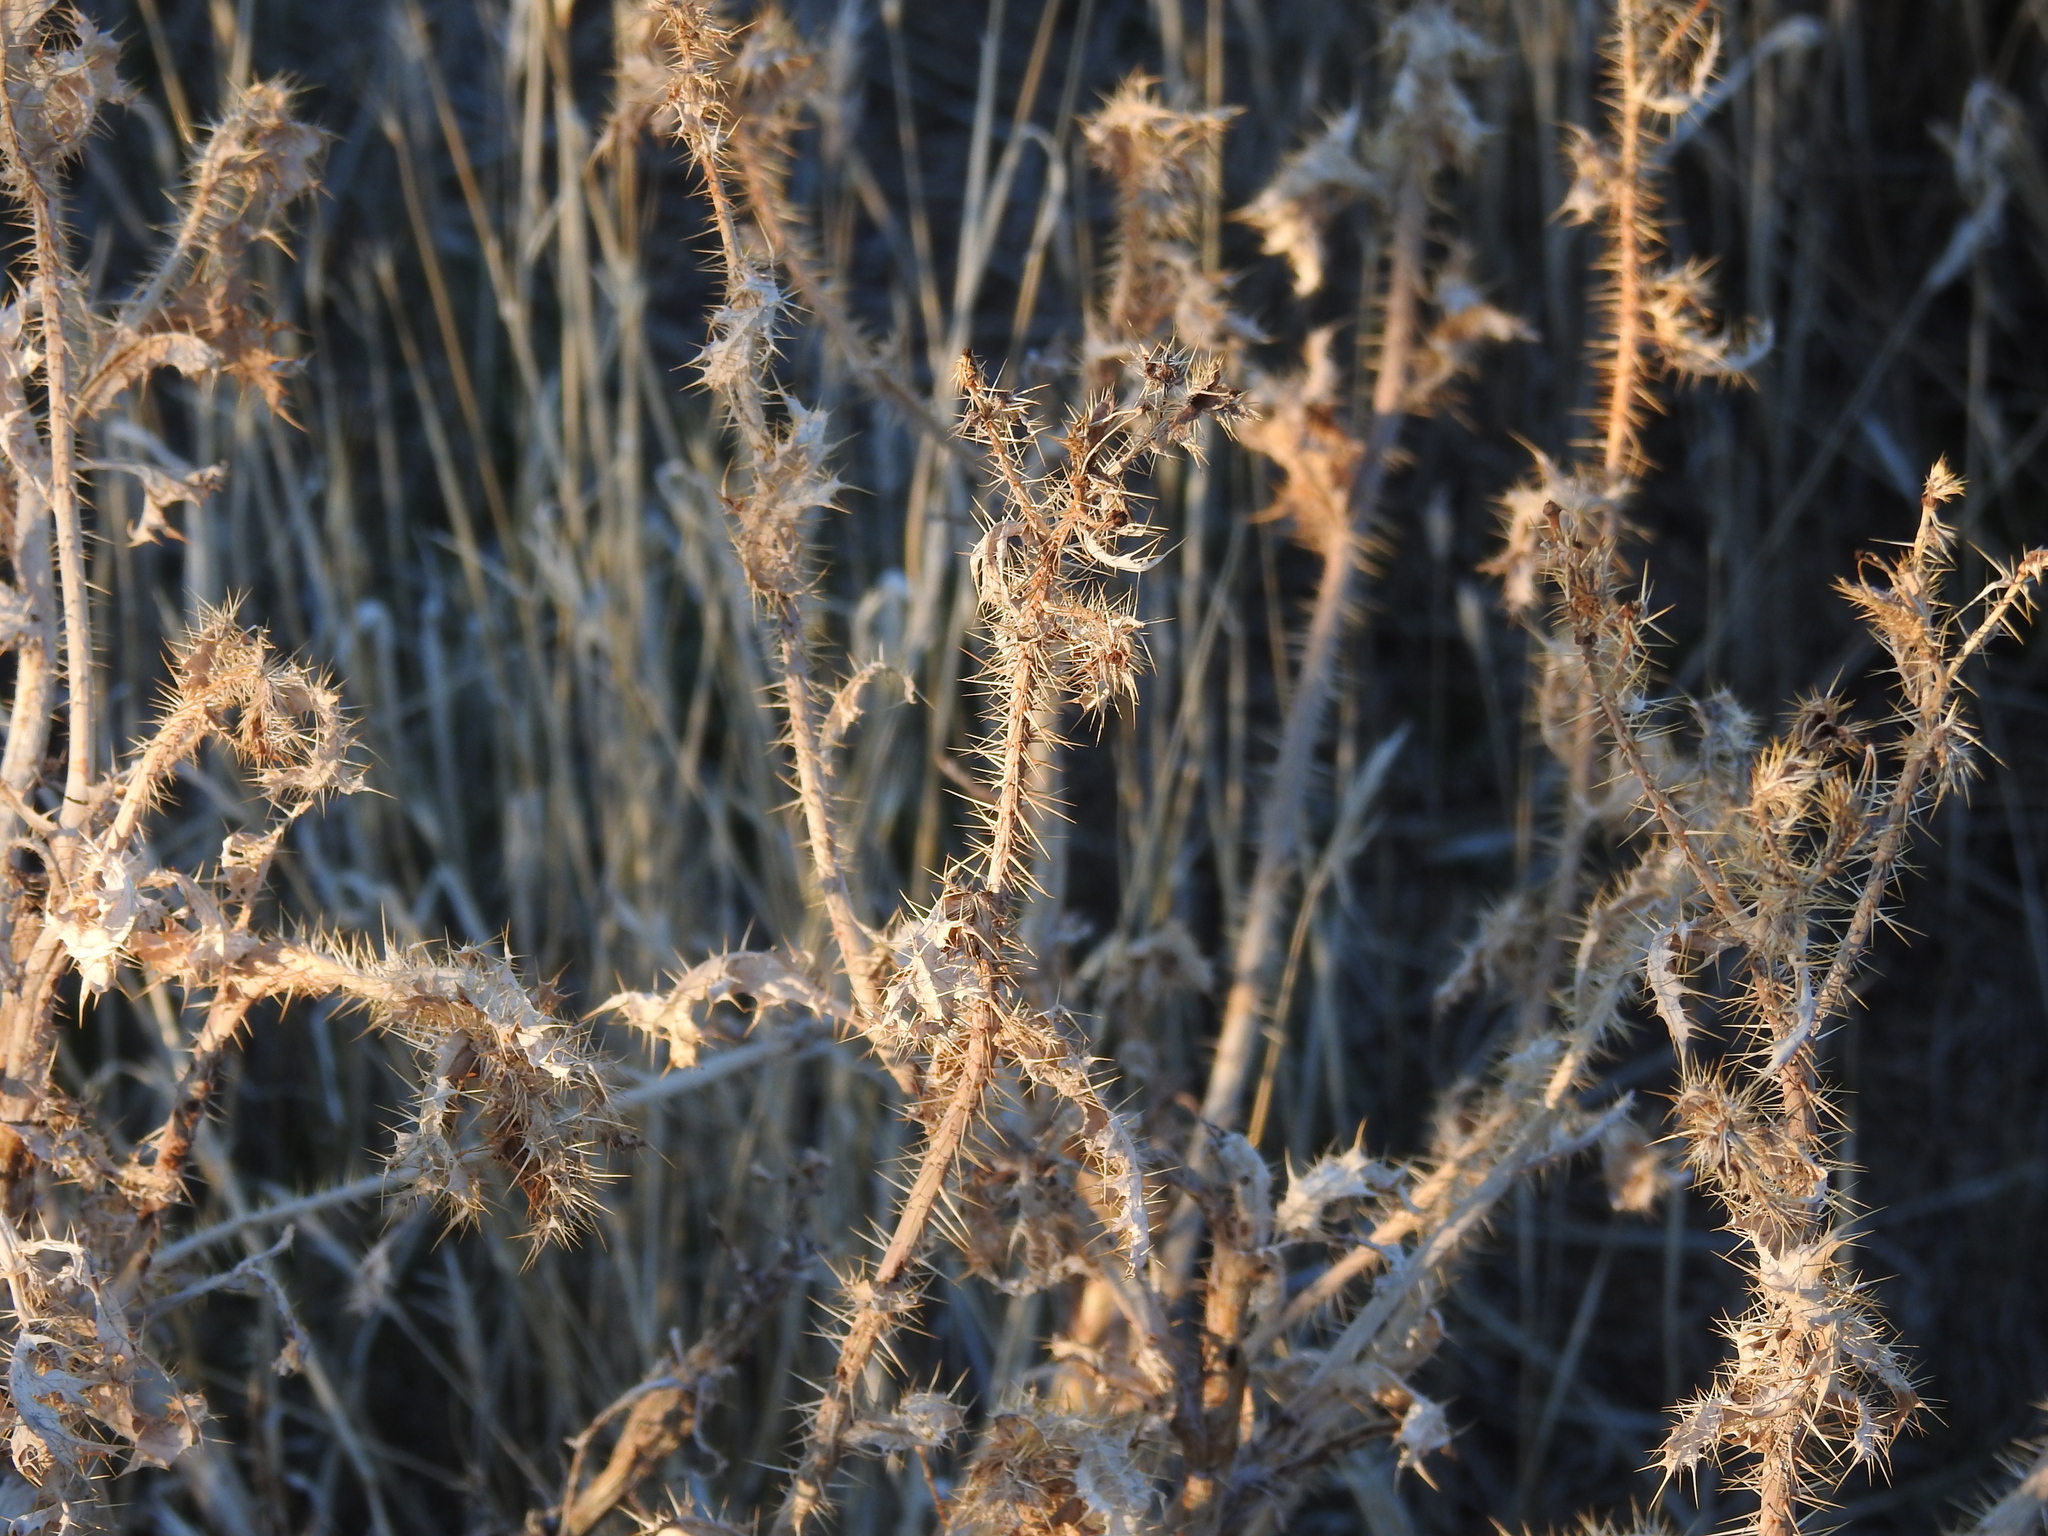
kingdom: Plantae
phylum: Tracheophyta
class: Magnoliopsida
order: Ranunculales
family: Papaveraceae
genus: Argemone
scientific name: Argemone pleiacantha
